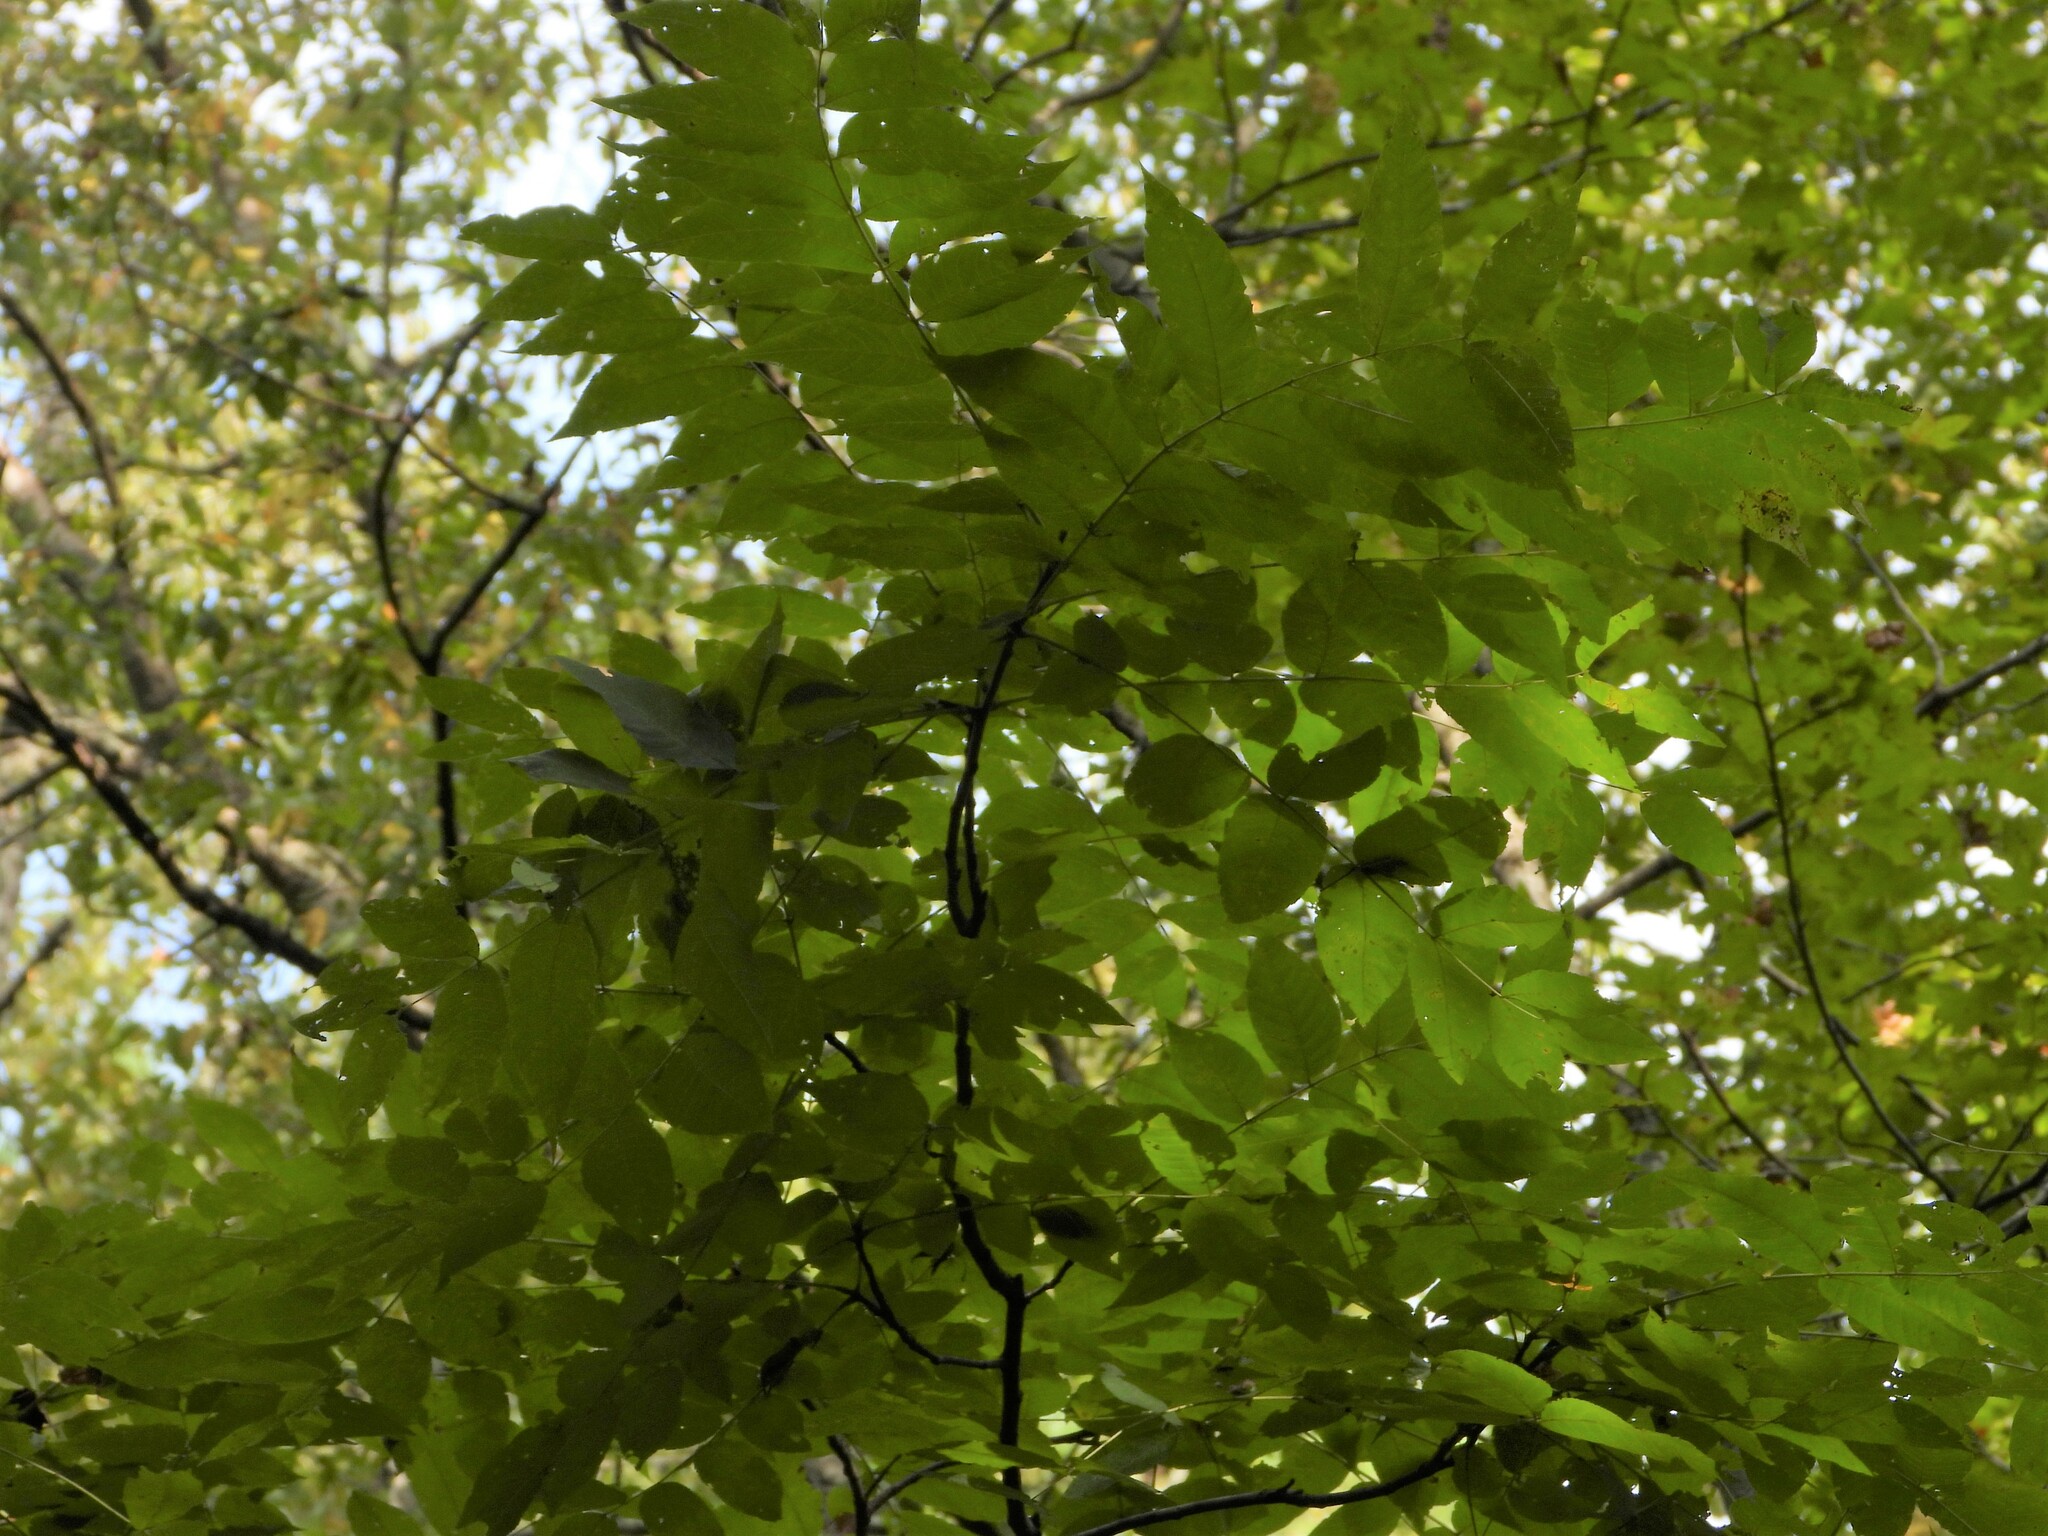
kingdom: Plantae
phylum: Tracheophyta
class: Magnoliopsida
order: Fagales
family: Juglandaceae
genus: Juglans
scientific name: Juglans nigra
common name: Black walnut
